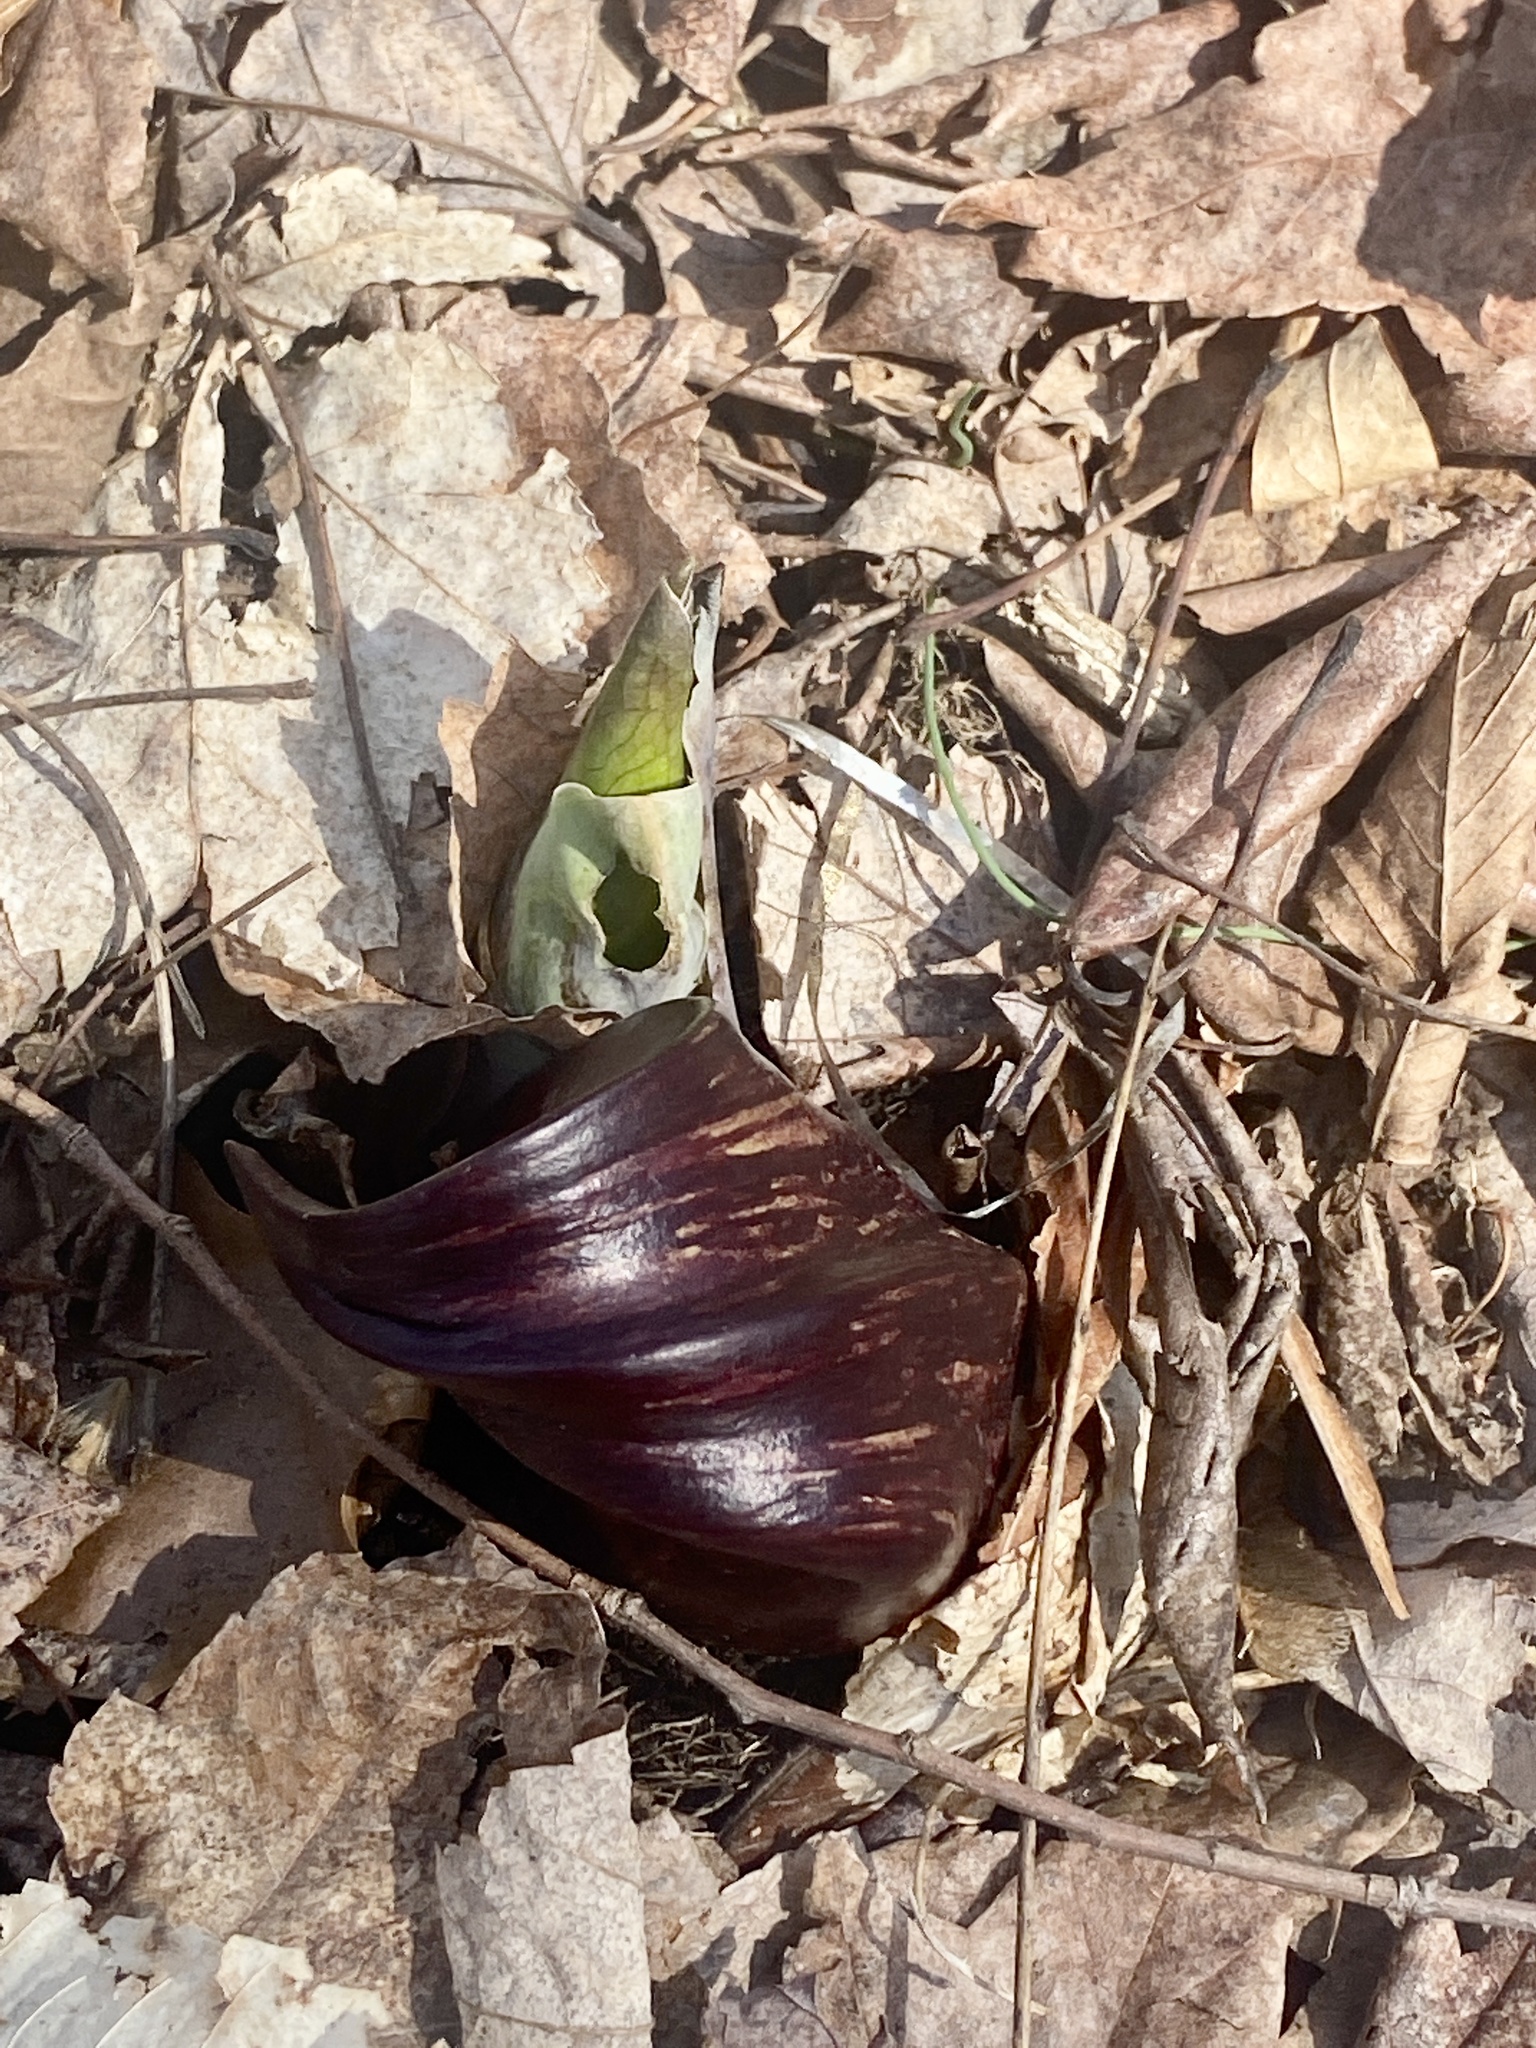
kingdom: Plantae
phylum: Tracheophyta
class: Liliopsida
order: Alismatales
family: Araceae
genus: Symplocarpus
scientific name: Symplocarpus foetidus
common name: Eastern skunk cabbage
